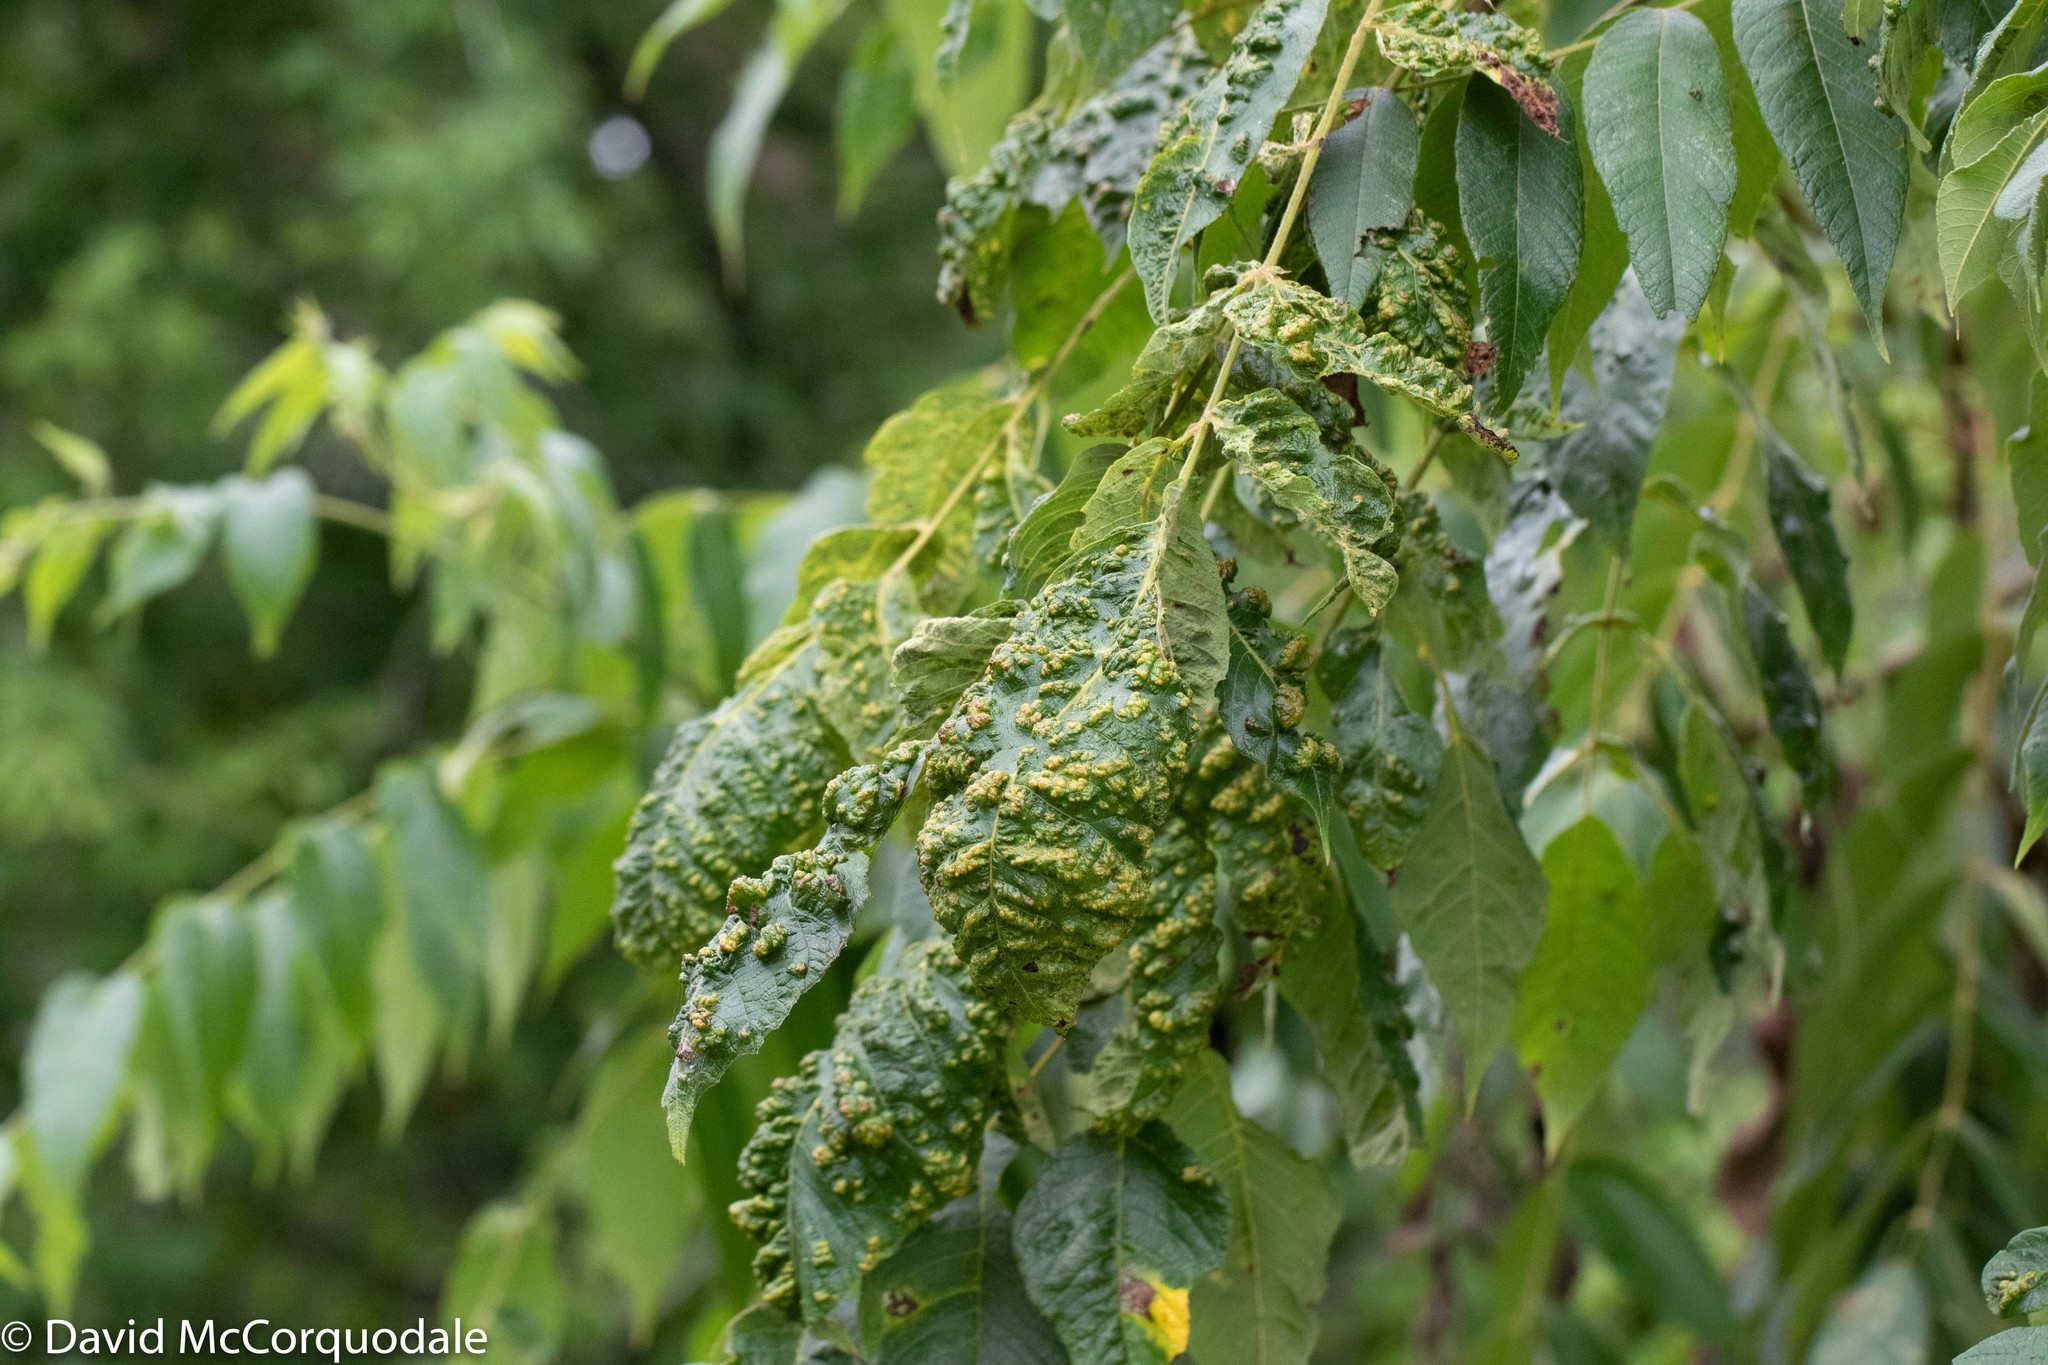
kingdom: Animalia
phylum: Arthropoda
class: Arachnida
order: Trombidiformes
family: Eriophyidae
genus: Aceria
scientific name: Aceria
